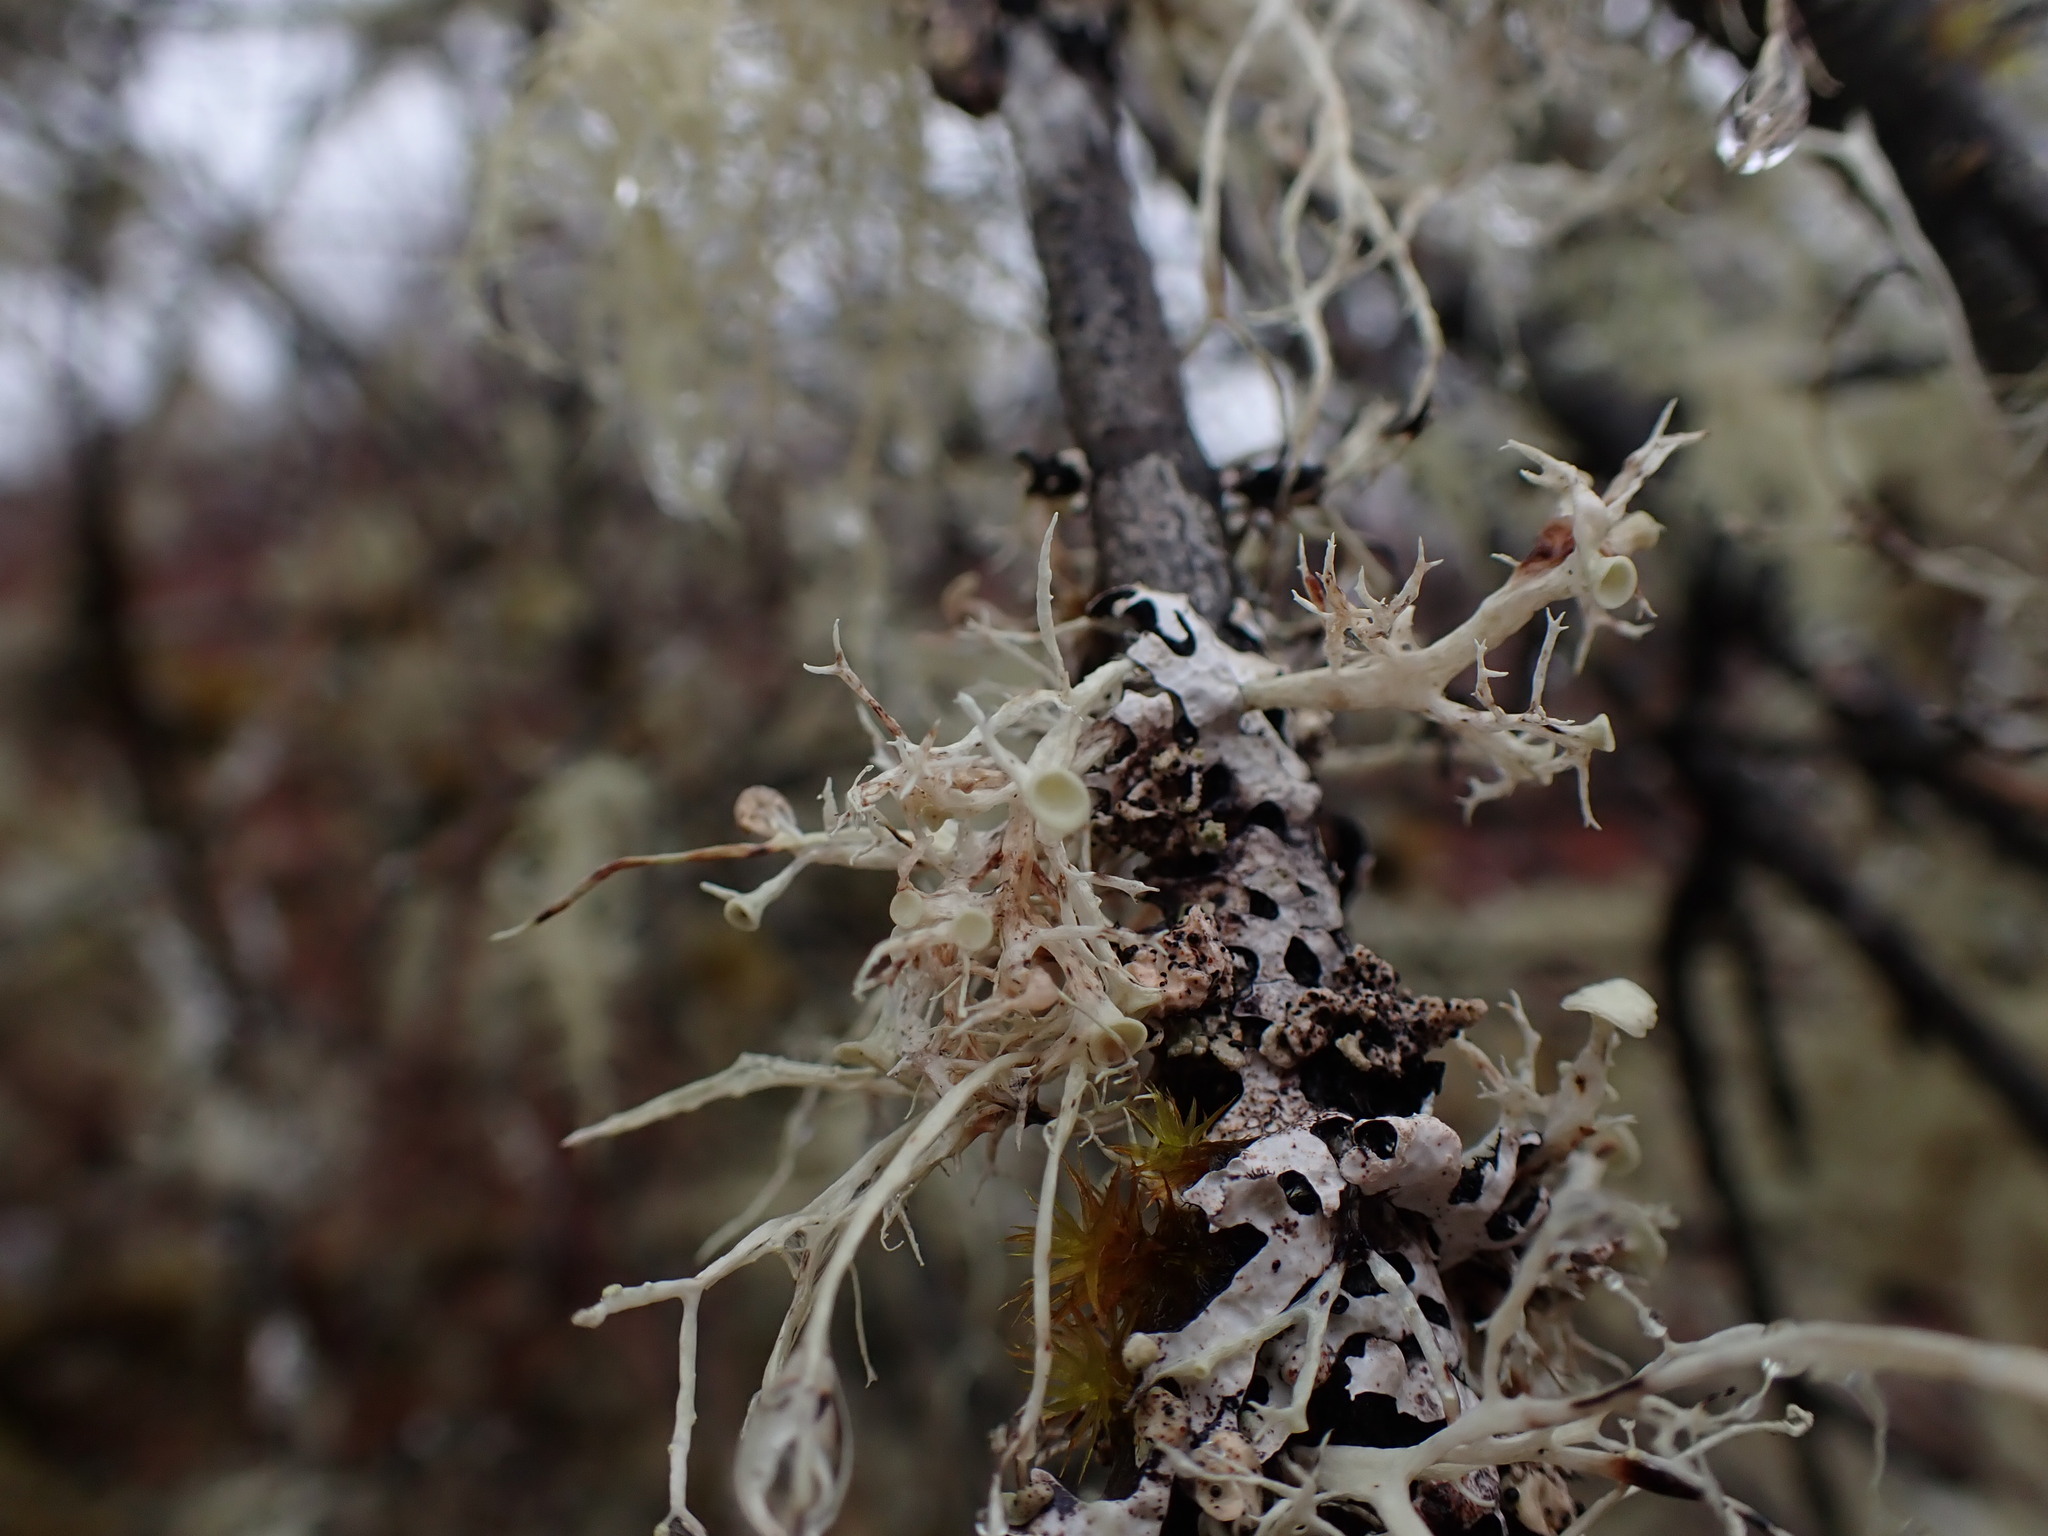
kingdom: Fungi
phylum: Ascomycota
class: Lecanoromycetes
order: Lecanorales
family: Ramalinaceae
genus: Ramalina
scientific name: Ramalina dilacerata
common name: Punctured bushy lichen
